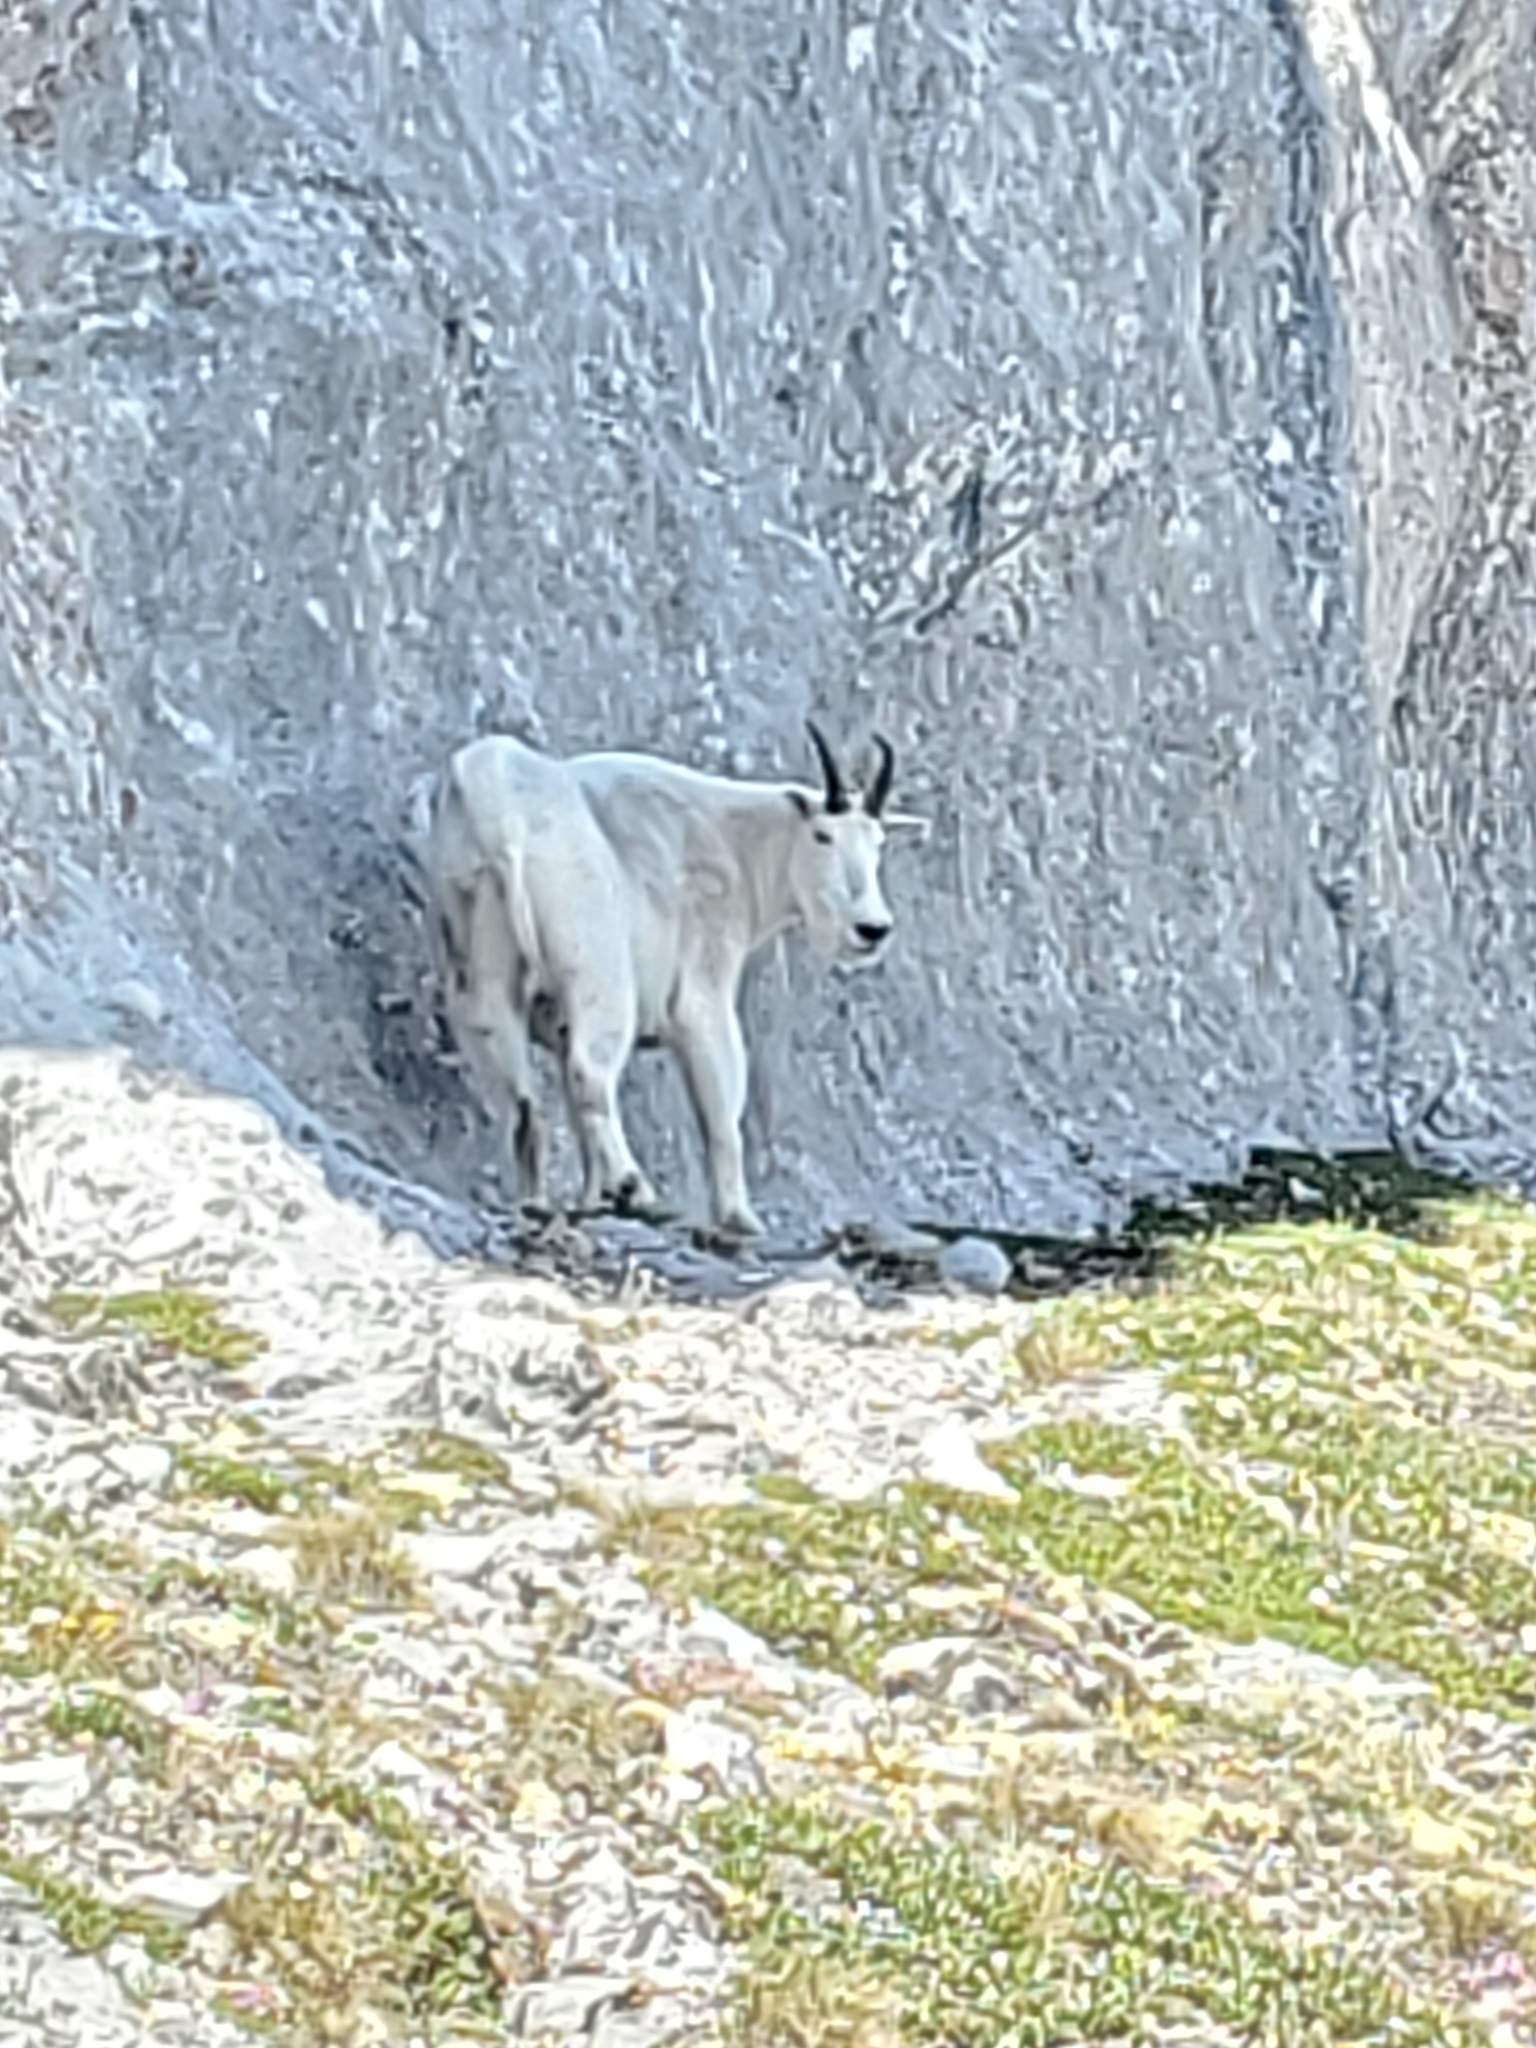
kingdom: Animalia
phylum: Chordata
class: Mammalia
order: Artiodactyla
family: Bovidae
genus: Oreamnos
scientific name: Oreamnos americanus
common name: Mountain goat
